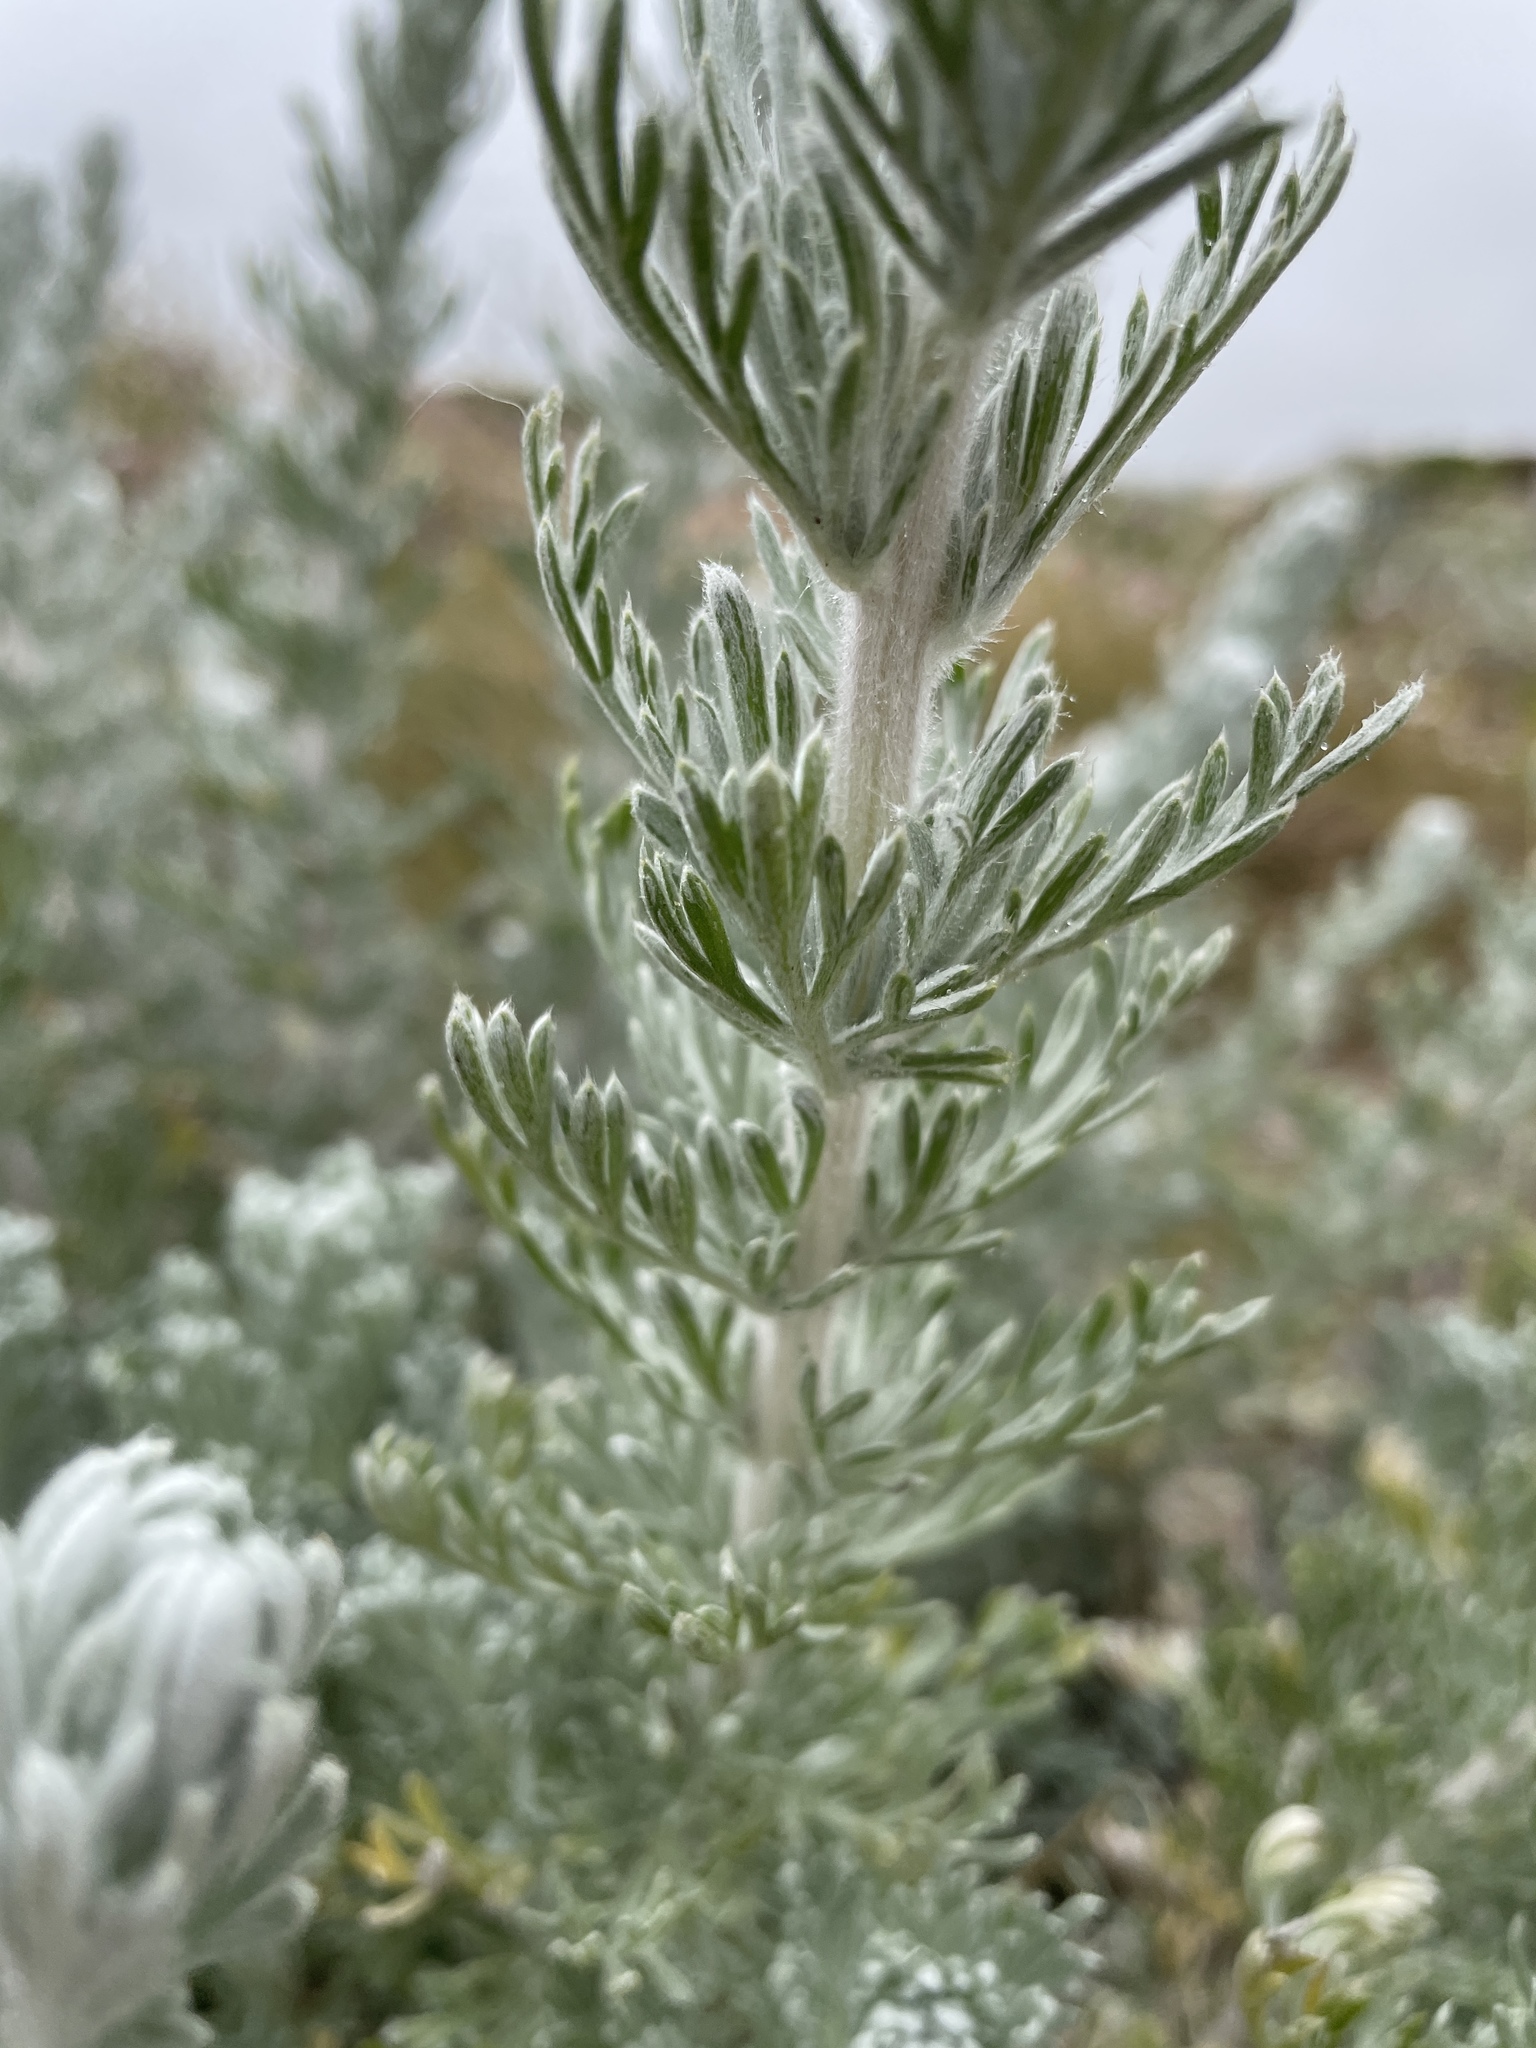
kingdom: Plantae
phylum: Tracheophyta
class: Magnoliopsida
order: Asterales
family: Asteraceae
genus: Artemisia
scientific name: Artemisia pycnocephala
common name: Coastal sagewort
